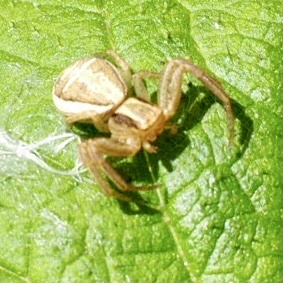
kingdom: Animalia
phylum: Arthropoda
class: Arachnida
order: Araneae
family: Thomisidae
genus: Xysticus
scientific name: Xysticus ulmi
